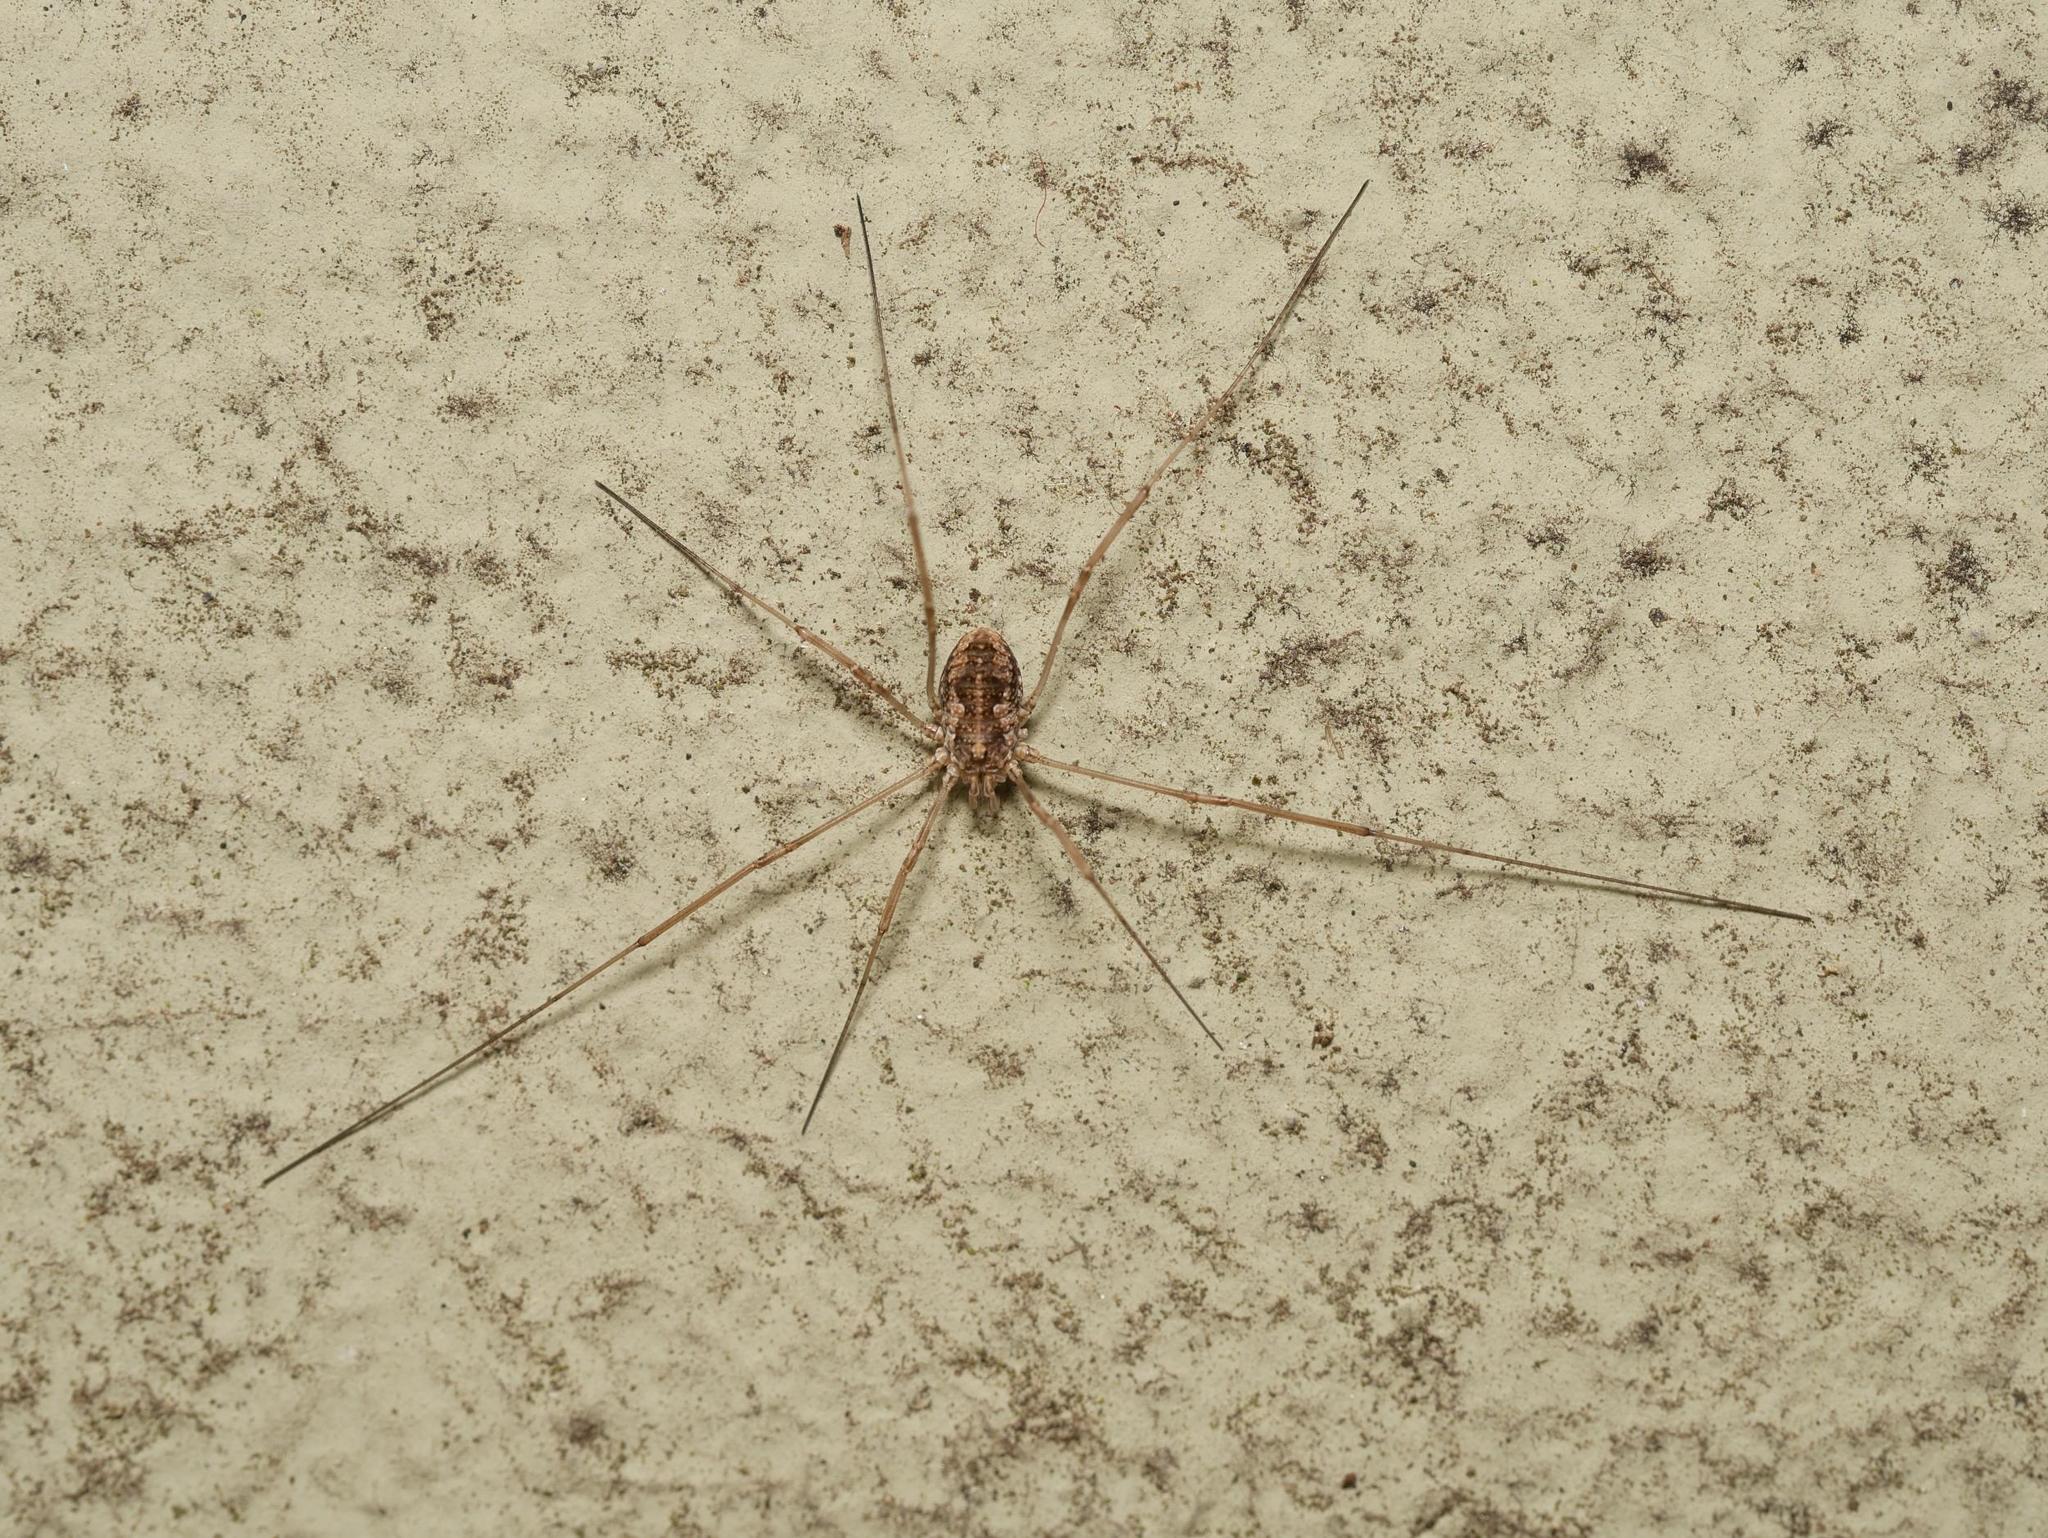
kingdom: Animalia
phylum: Arthropoda
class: Arachnida
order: Opiliones
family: Phalangiidae
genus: Phalangium
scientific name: Phalangium opilio
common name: Daddy longleg
